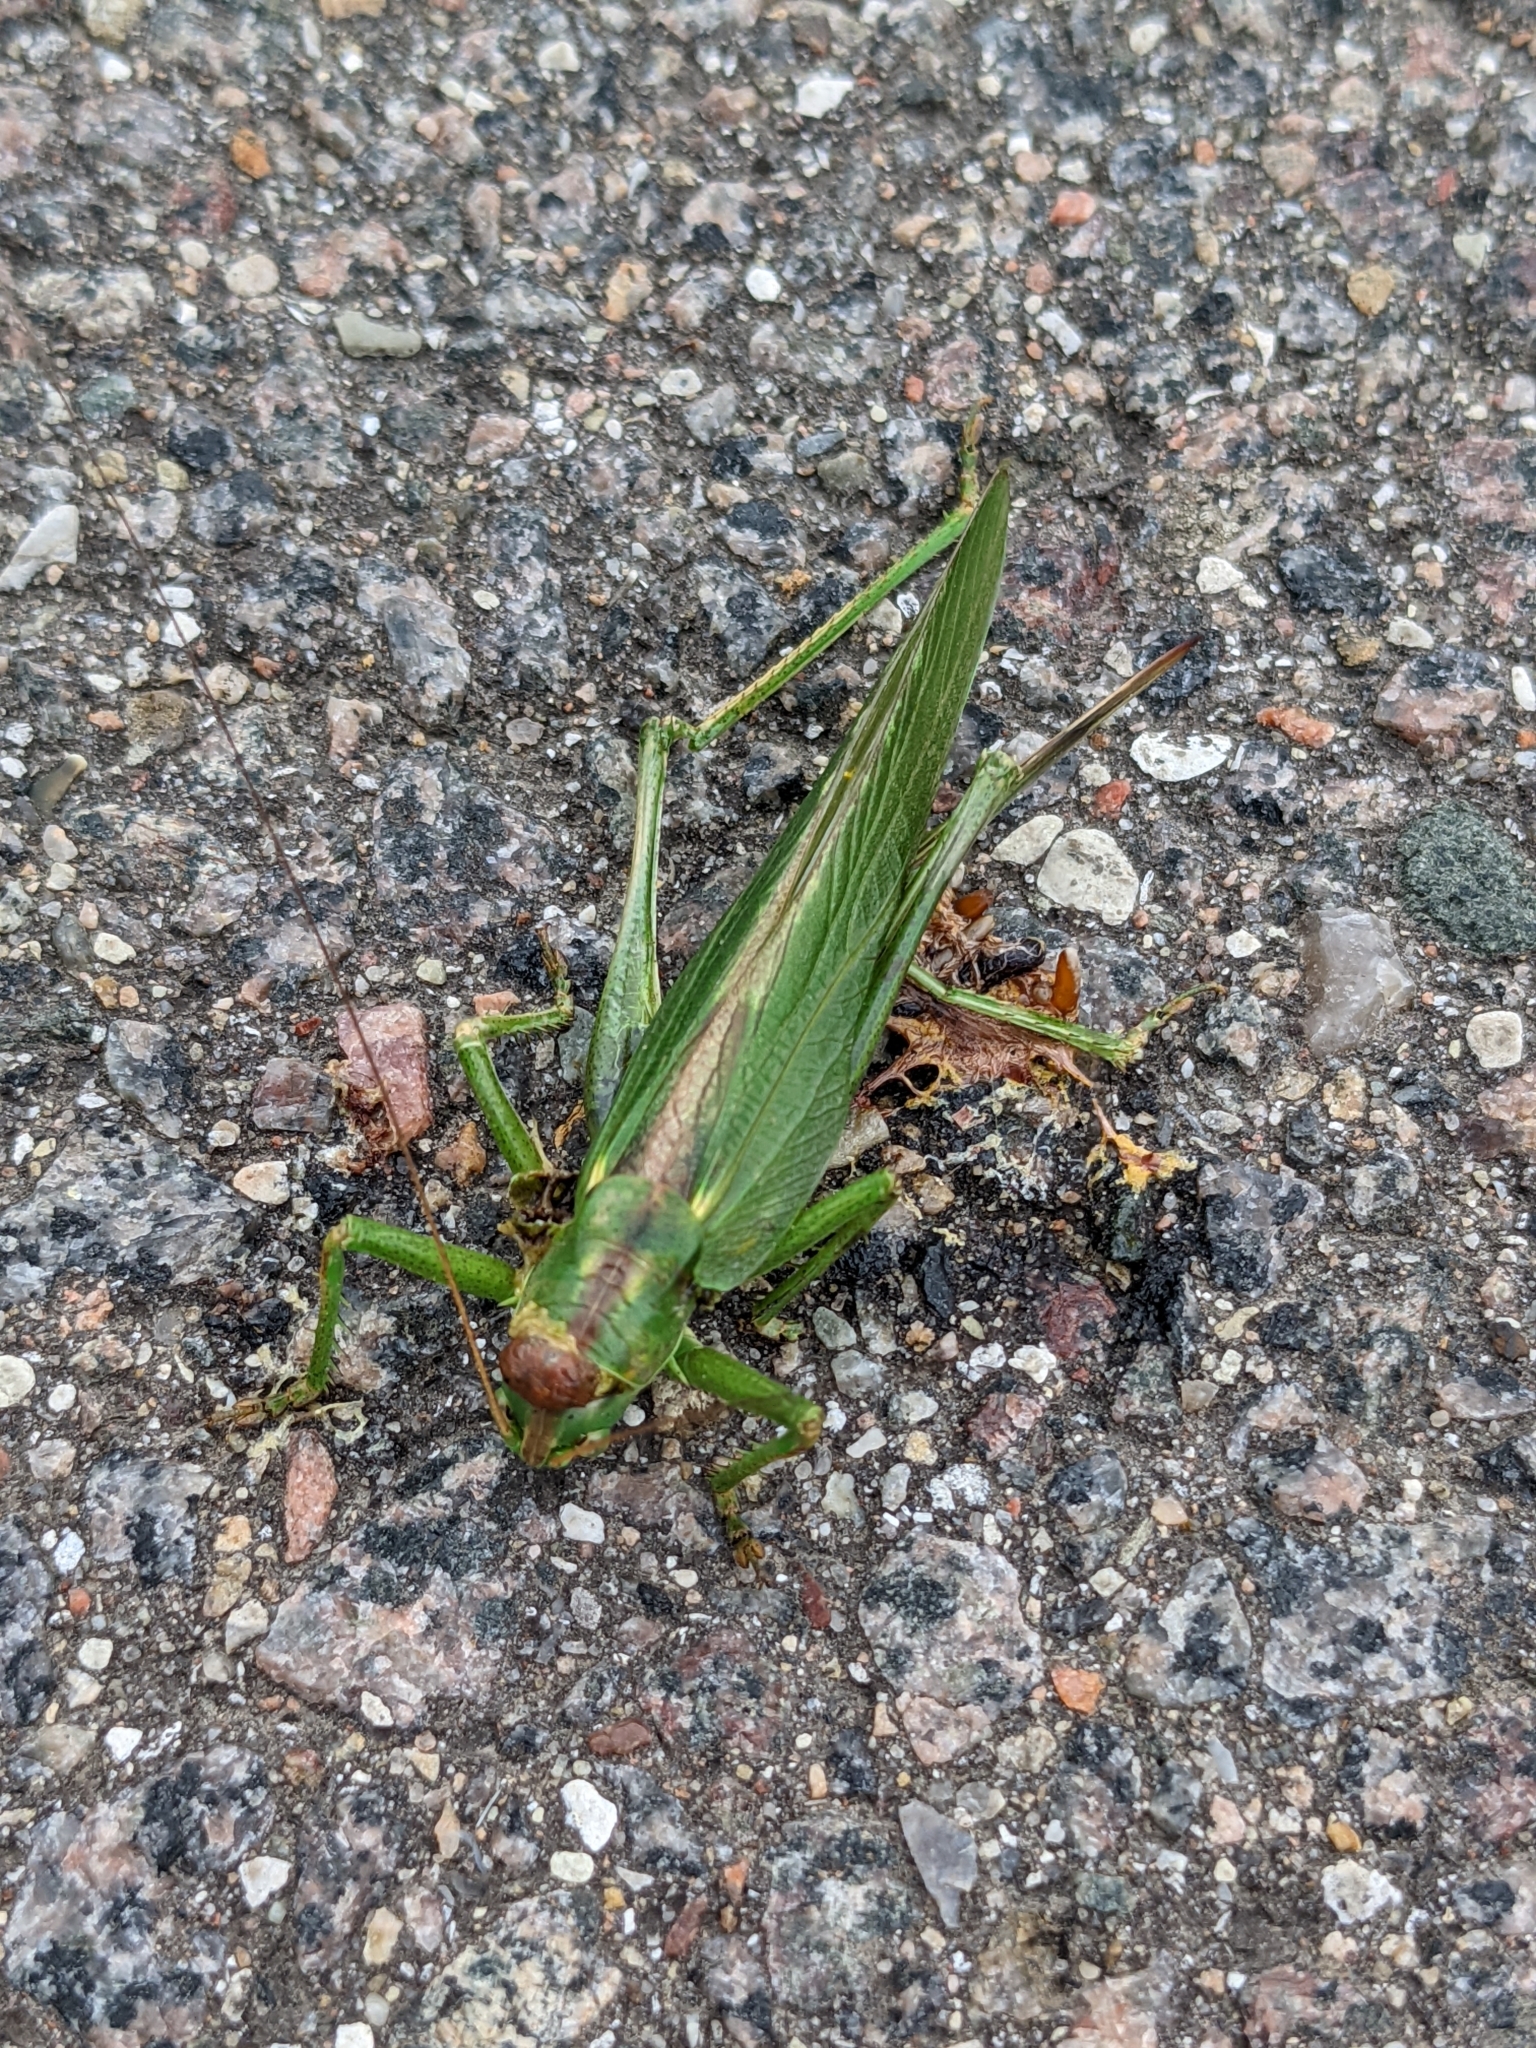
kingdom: Animalia
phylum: Arthropoda
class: Insecta
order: Orthoptera
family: Tettigoniidae
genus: Tettigonia
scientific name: Tettigonia viridissima
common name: Great green bush-cricket
